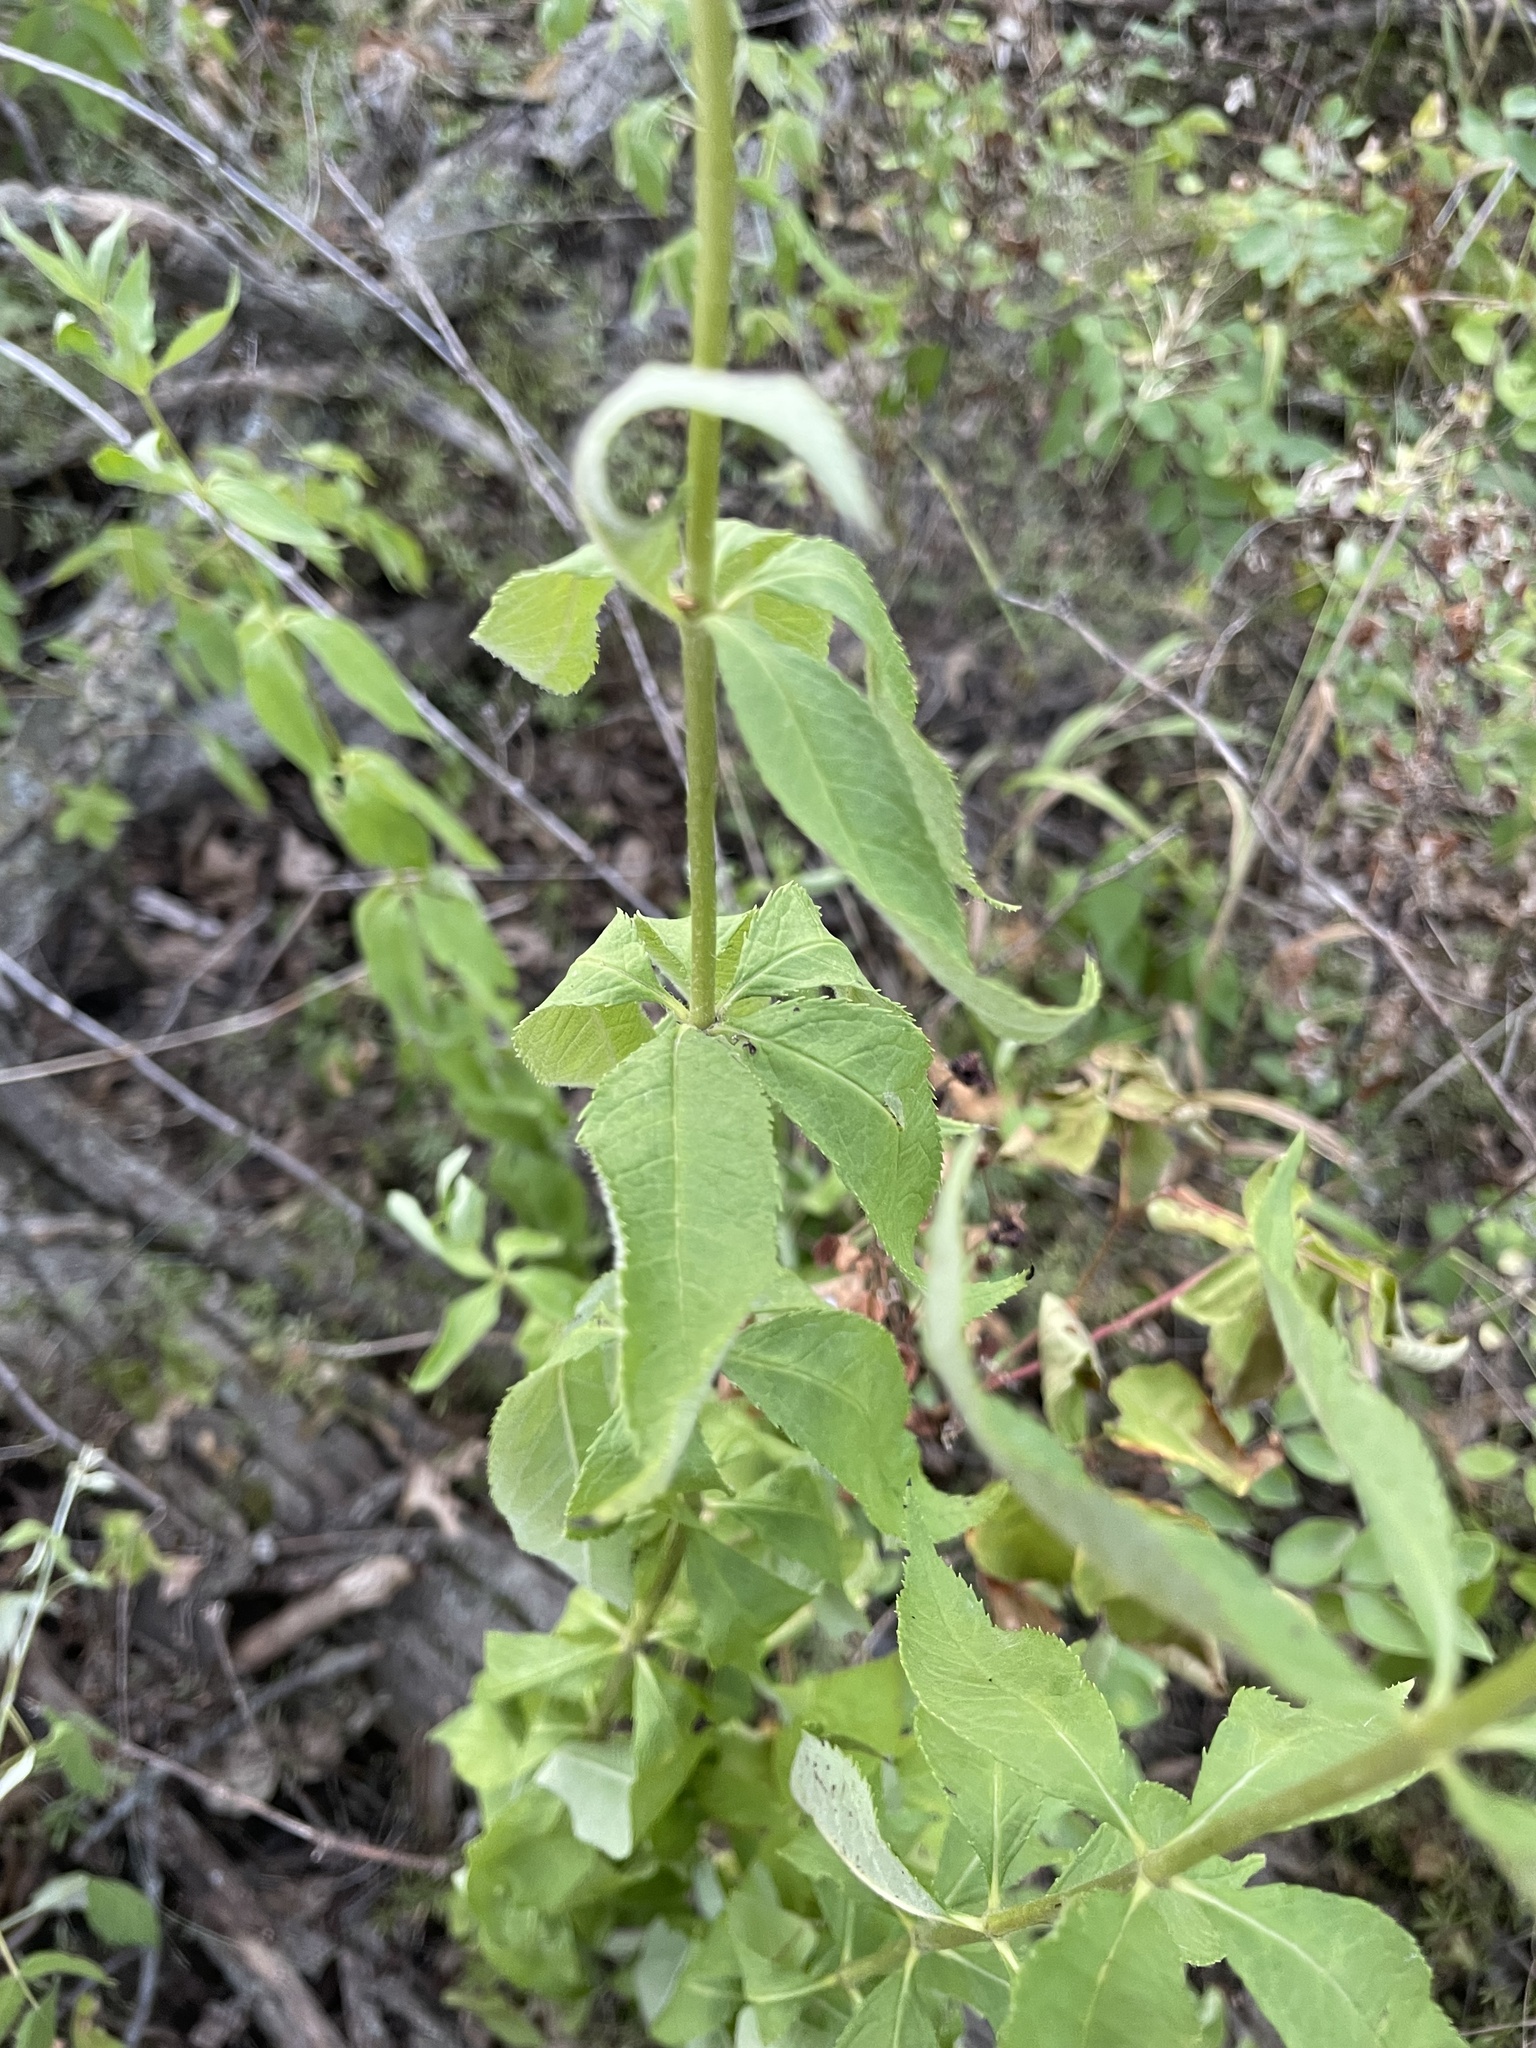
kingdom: Plantae
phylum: Tracheophyta
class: Magnoliopsida
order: Lamiales
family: Plantaginaceae
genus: Veronicastrum
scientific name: Veronicastrum virginicum
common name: Blackroot
